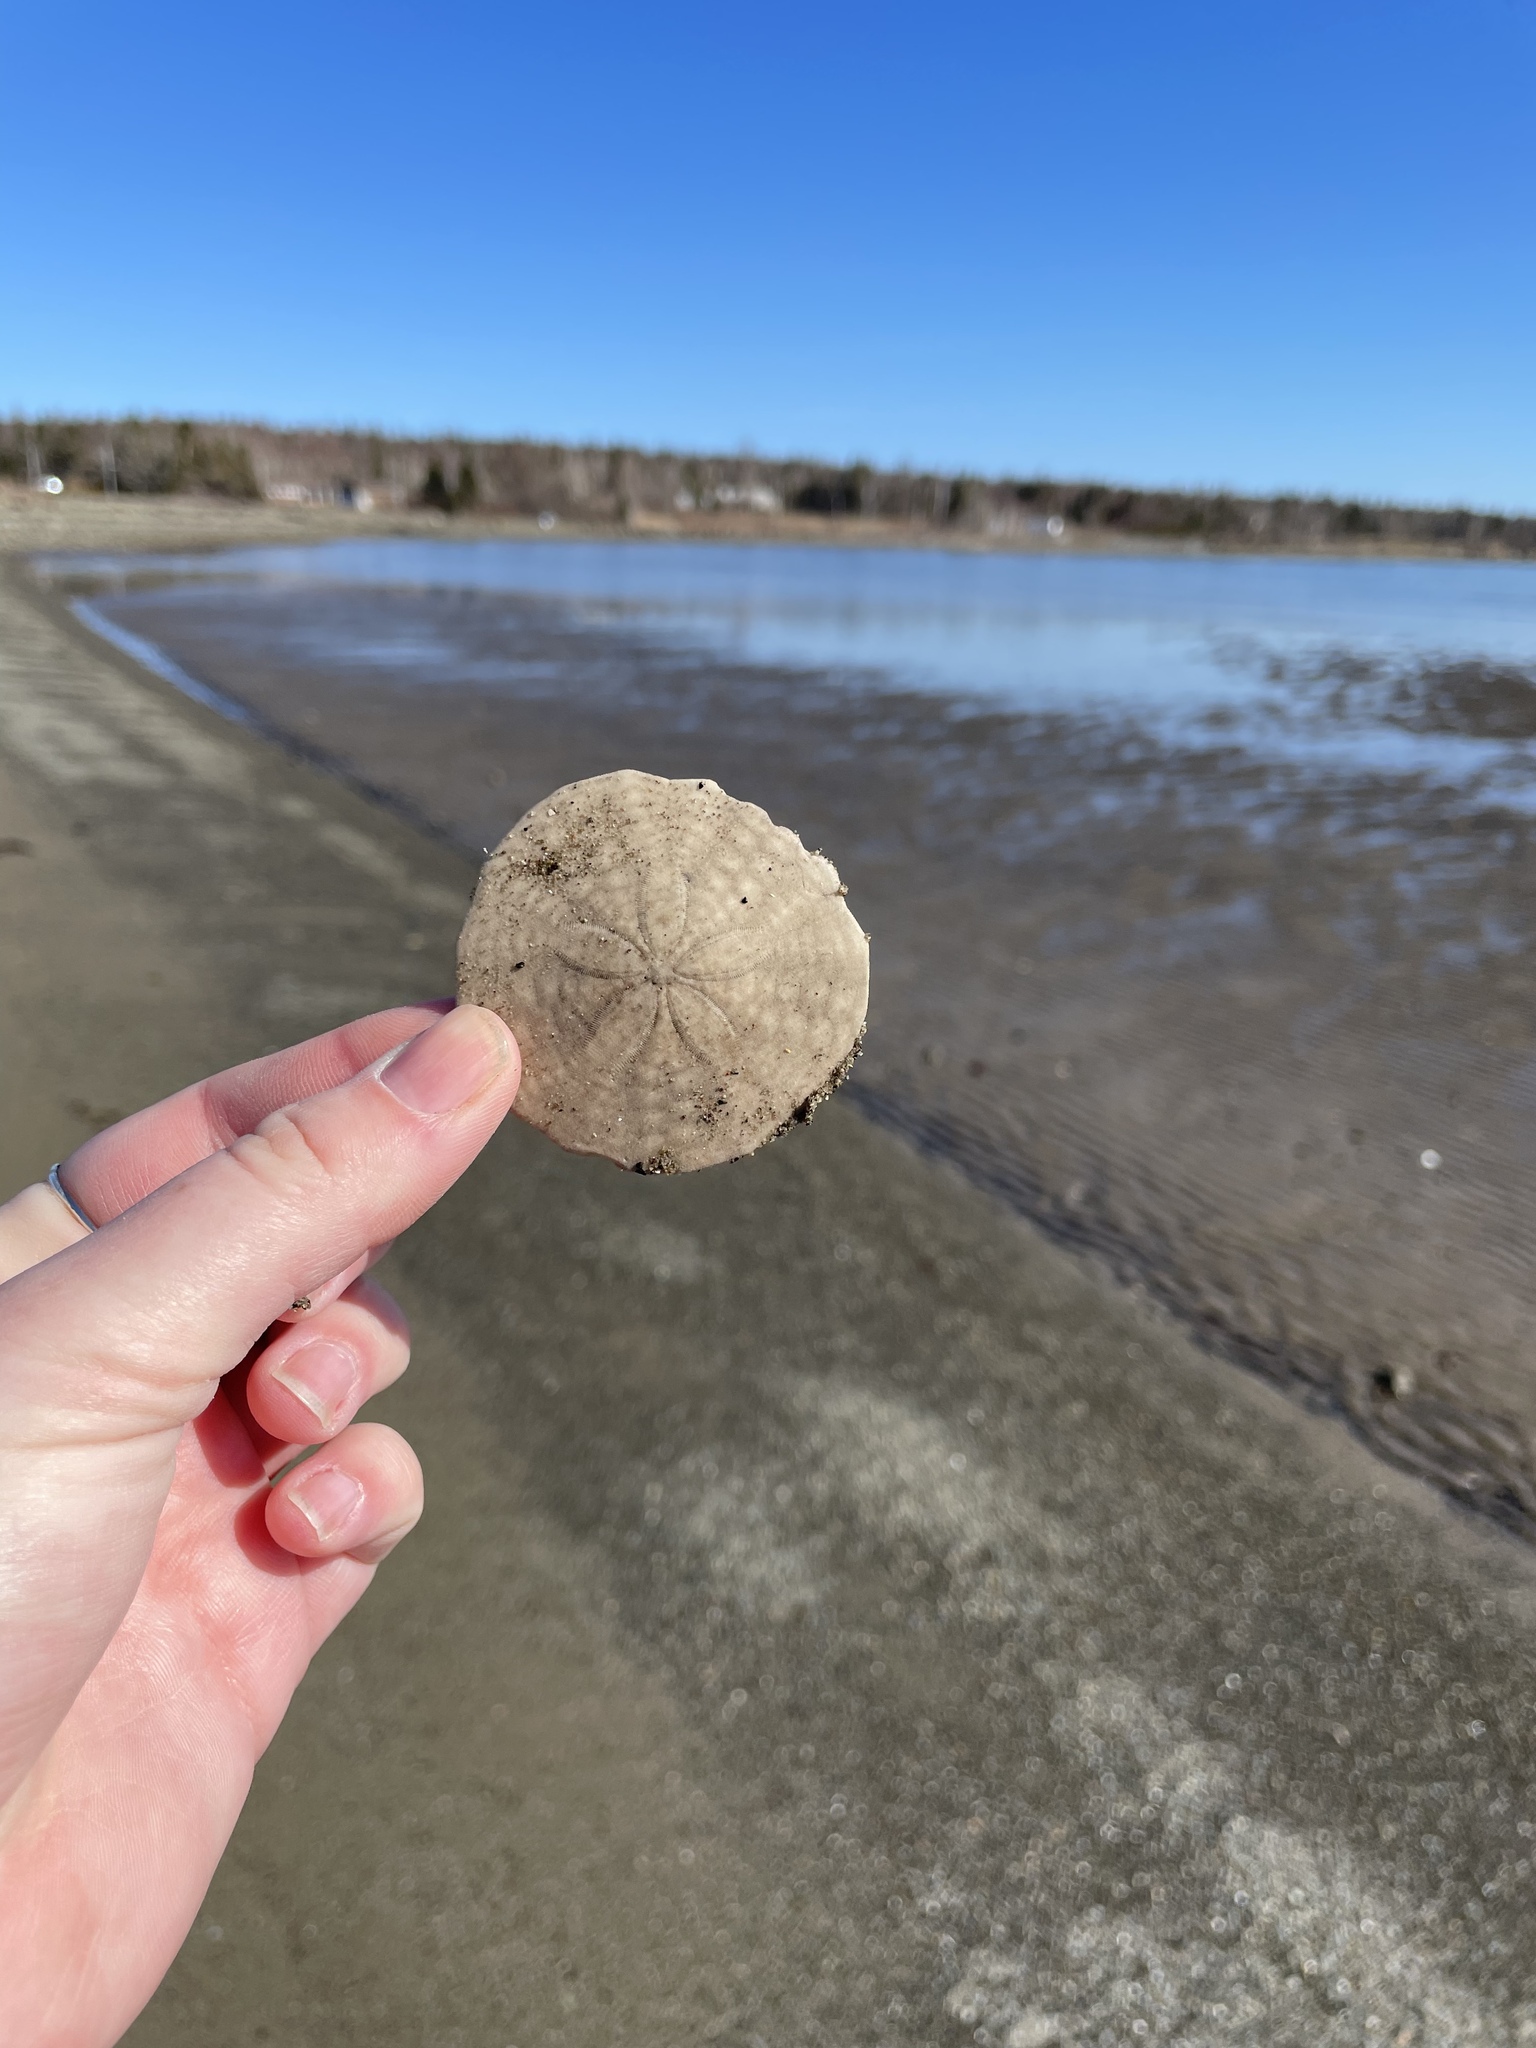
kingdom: Animalia
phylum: Echinodermata
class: Echinoidea
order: Echinolampadacea
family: Echinarachniidae
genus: Echinarachnius
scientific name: Echinarachnius parma
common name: Common sand dollar
